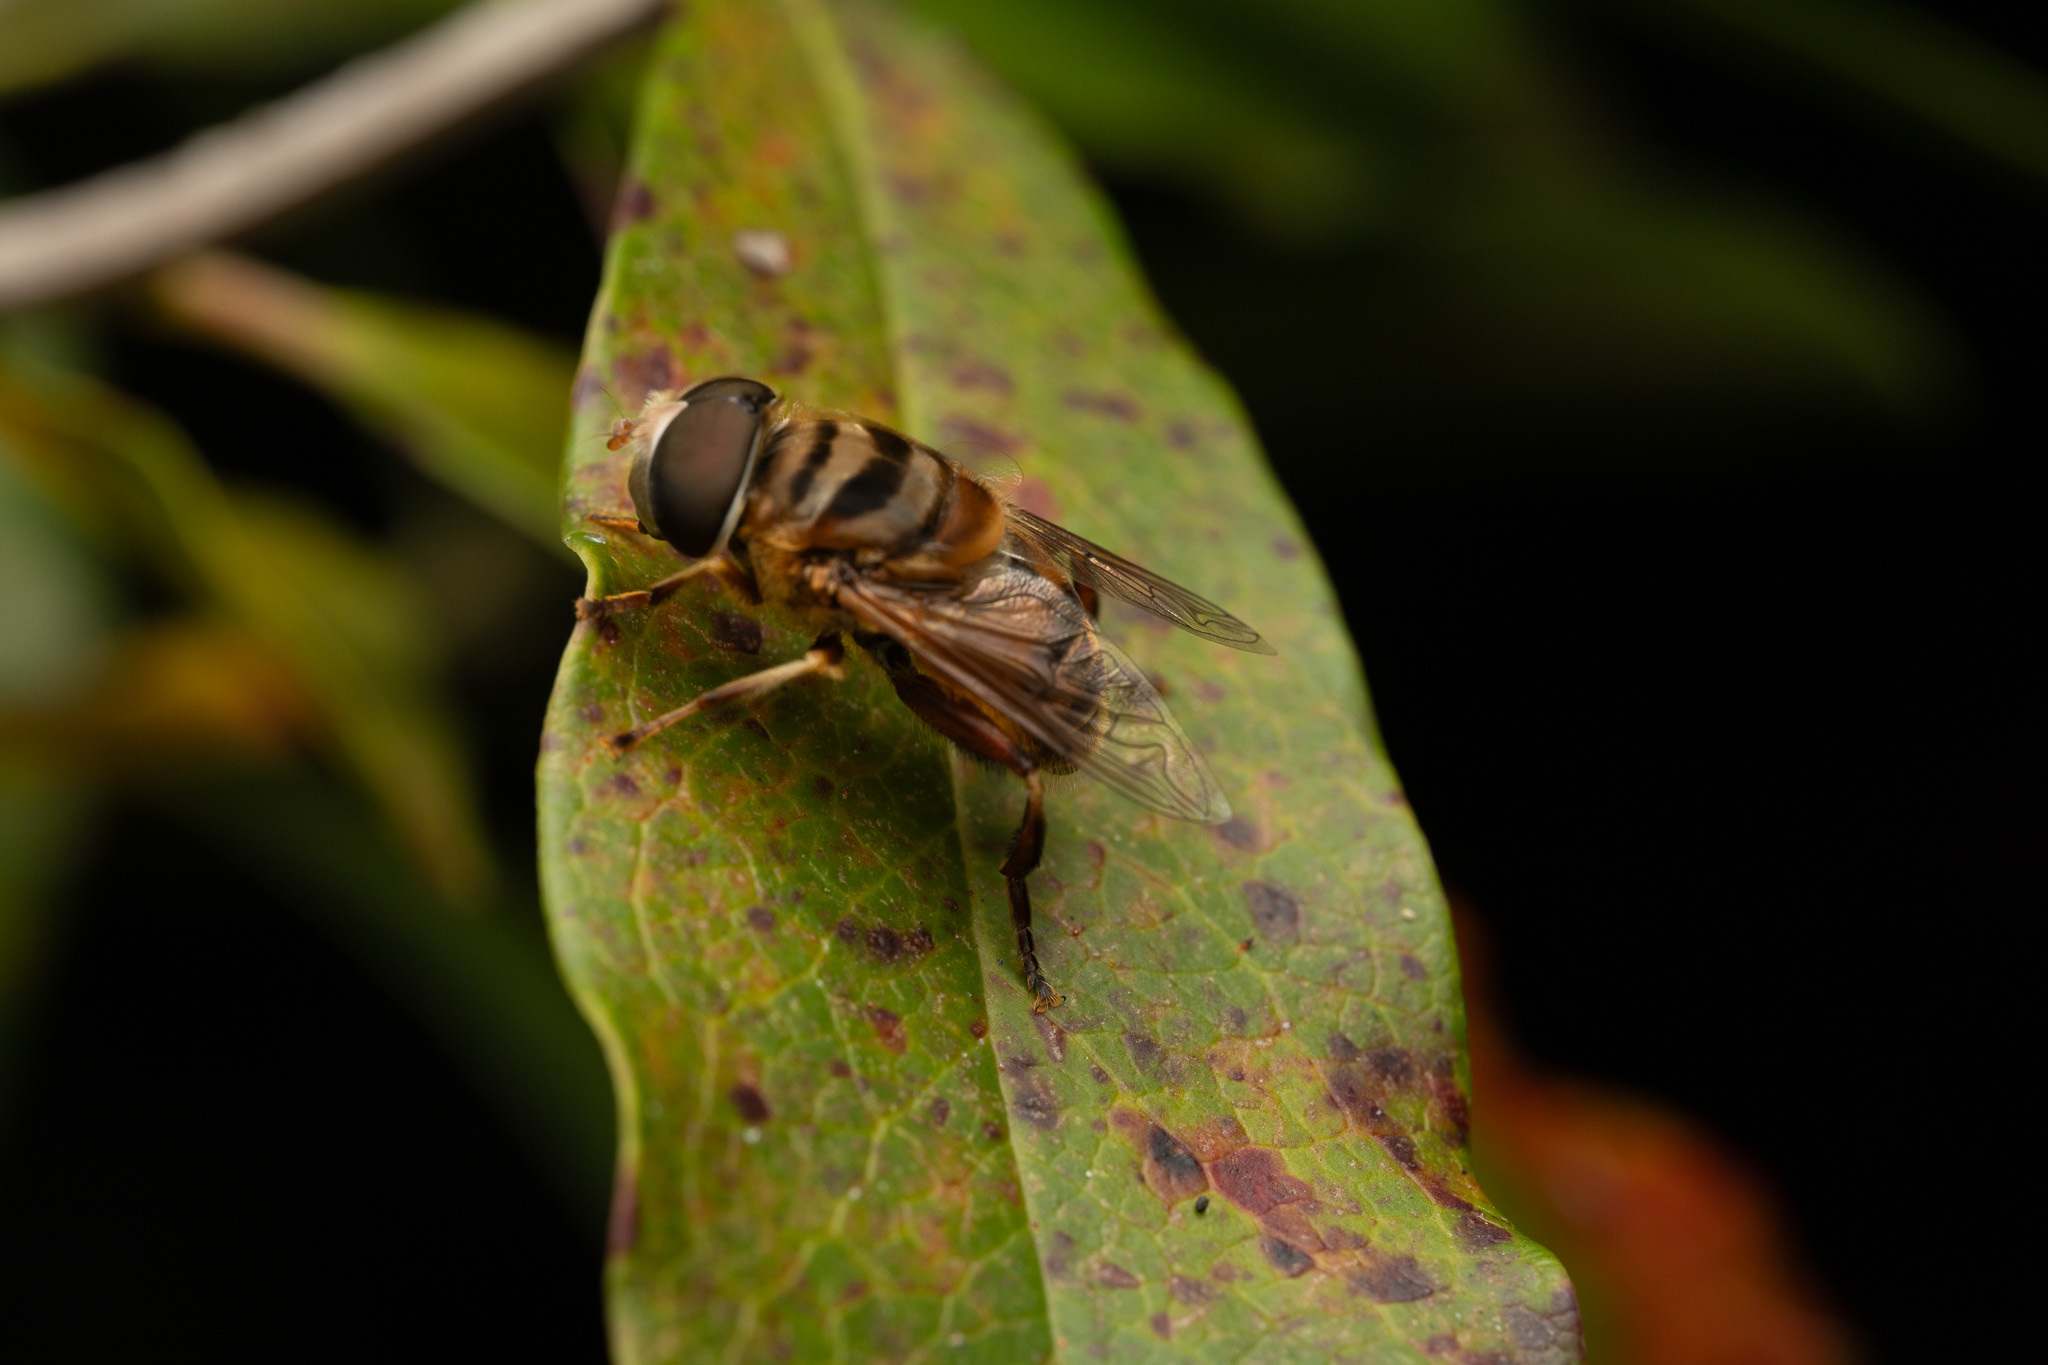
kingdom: Animalia
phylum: Arthropoda
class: Insecta
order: Diptera
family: Syrphidae
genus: Palpada
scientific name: Palpada vinetorum
